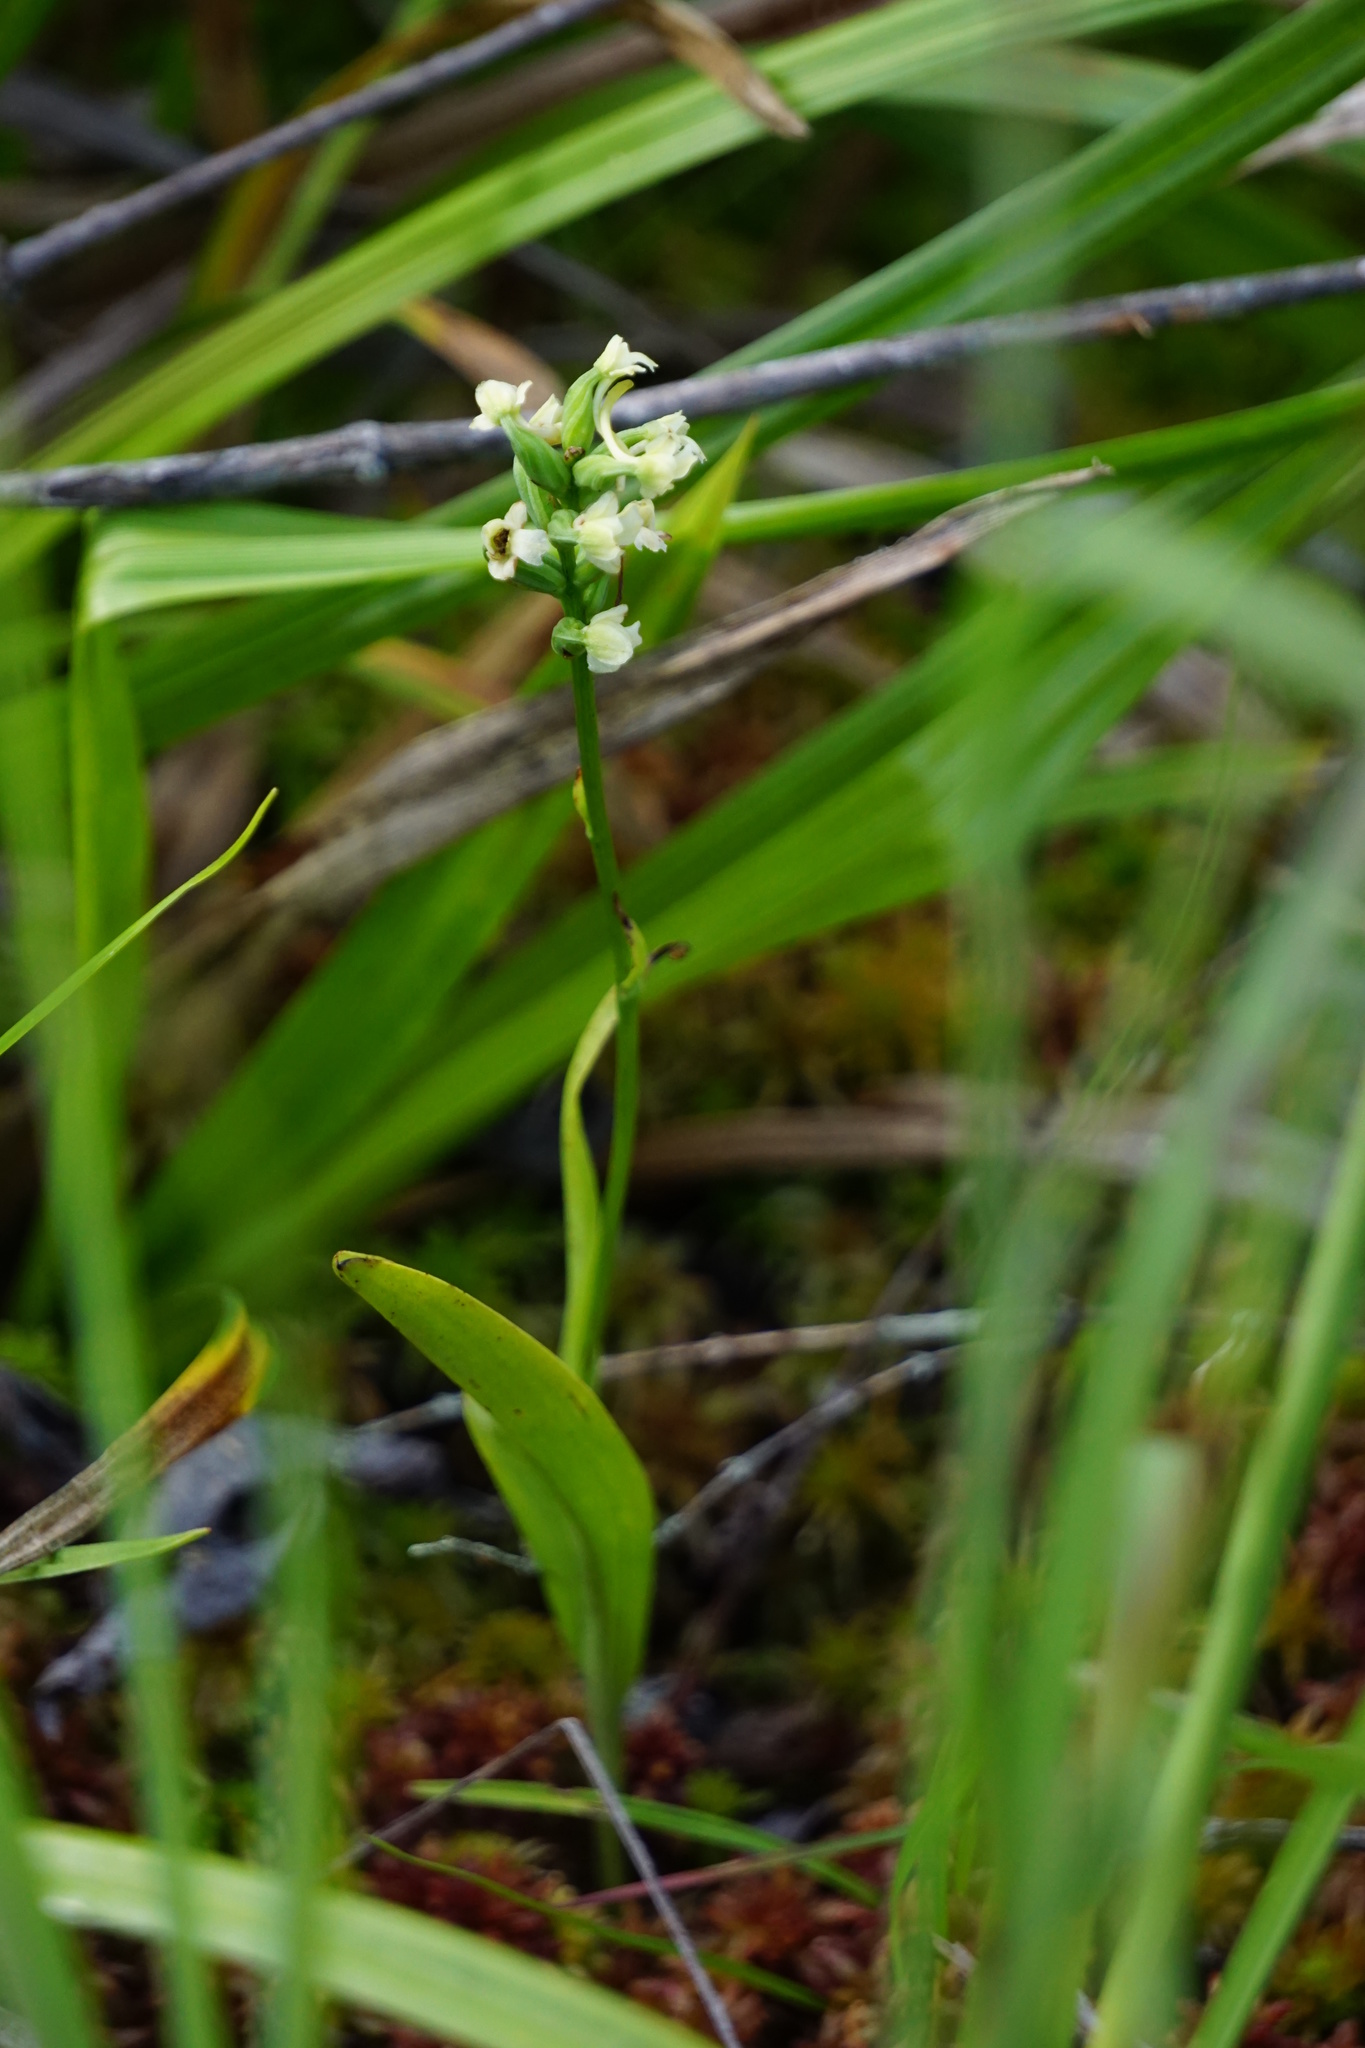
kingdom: Plantae
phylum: Tracheophyta
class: Liliopsida
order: Asparagales
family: Orchidaceae
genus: Platanthera
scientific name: Platanthera clavellata
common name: Club-spur orchid
